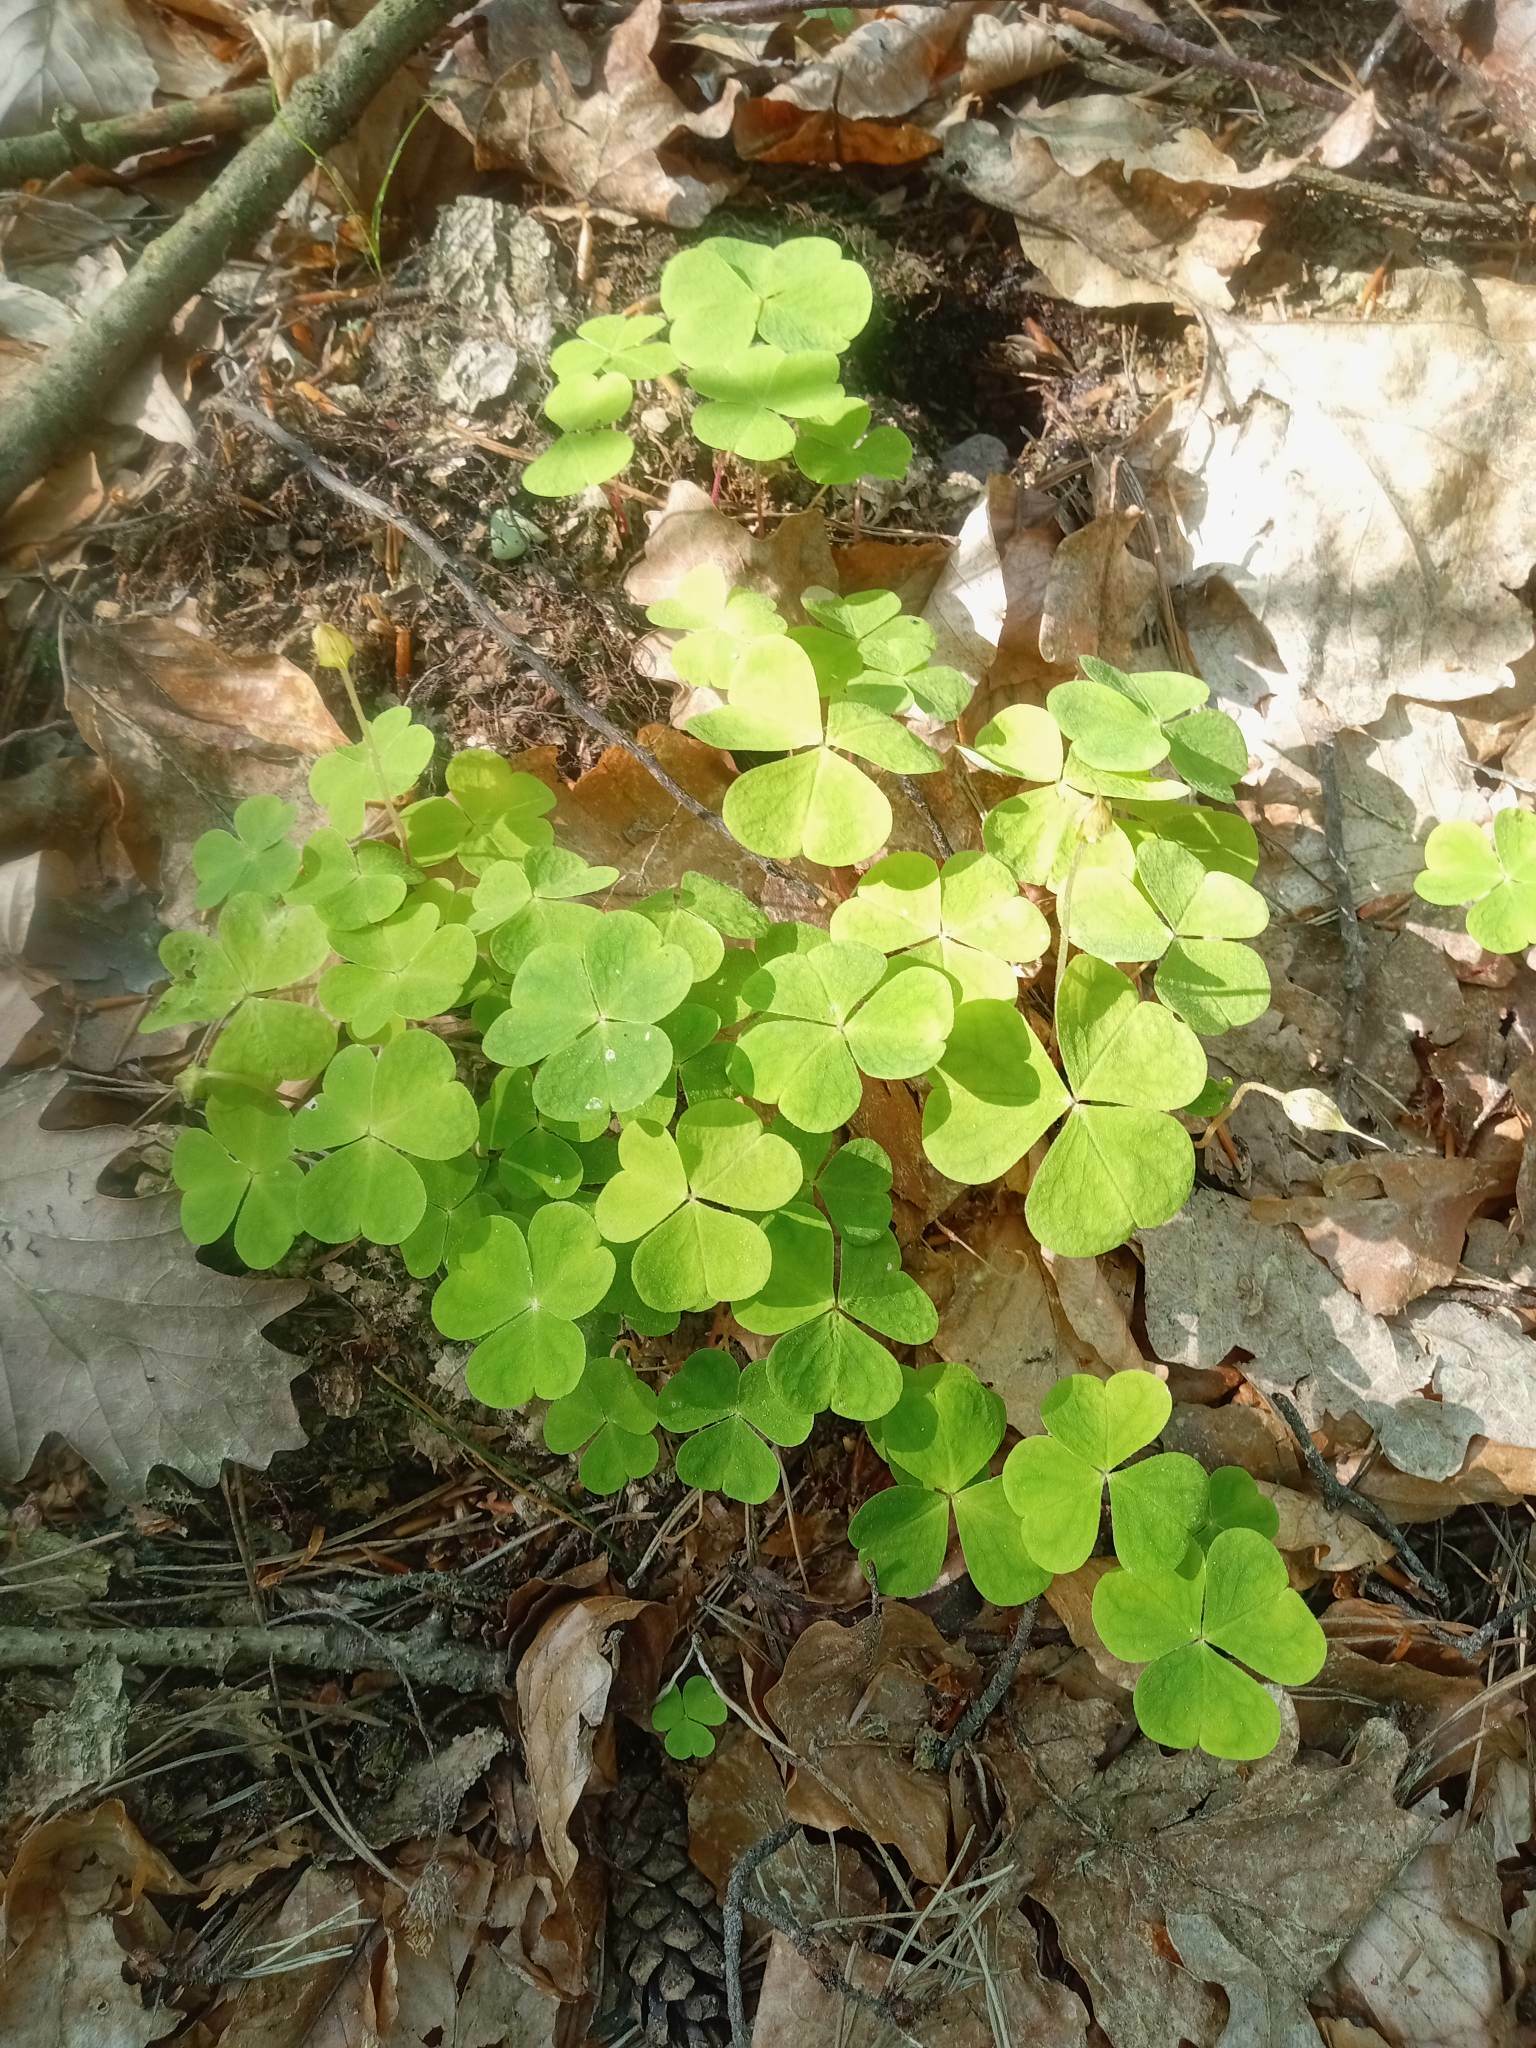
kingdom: Plantae
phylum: Tracheophyta
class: Magnoliopsida
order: Oxalidales
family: Oxalidaceae
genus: Oxalis
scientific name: Oxalis acetosella
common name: Wood-sorrel
